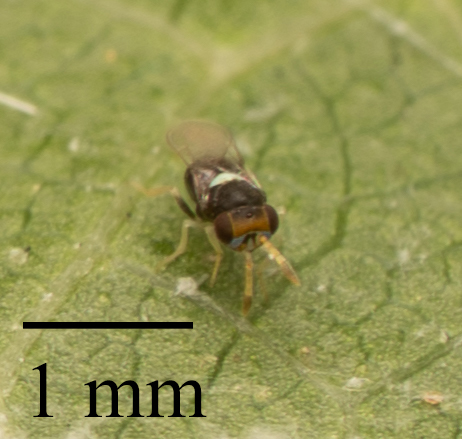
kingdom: Animalia
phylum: Arthropoda
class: Insecta
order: Hymenoptera
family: Aphelinidae
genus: Encarsiella
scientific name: Encarsiella noyesi
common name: Parasitoid wasp
